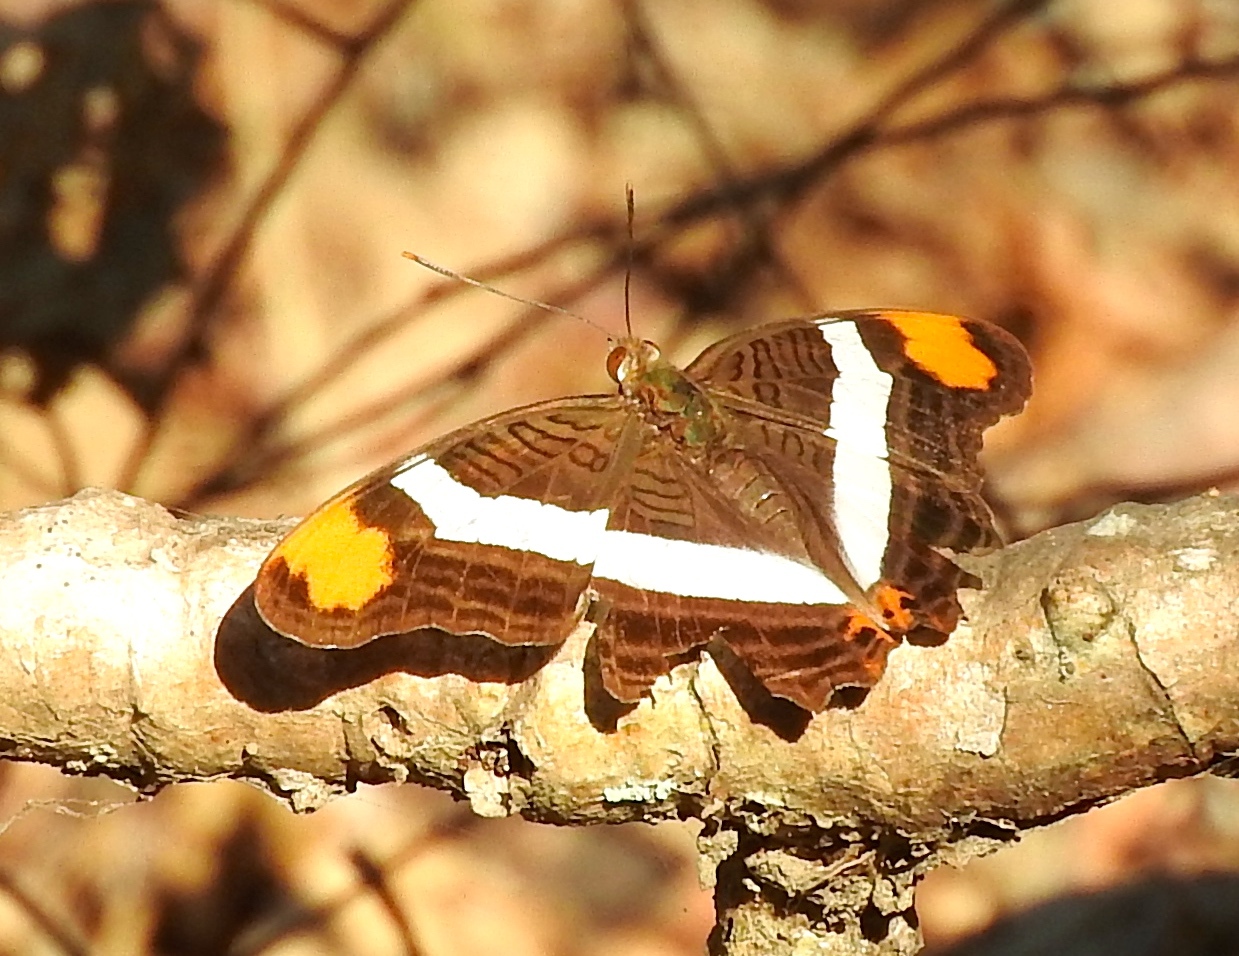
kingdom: Animalia
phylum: Arthropoda
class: Insecta
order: Lepidoptera
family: Nymphalidae
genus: Limenitis
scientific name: Limenitis fessonia
